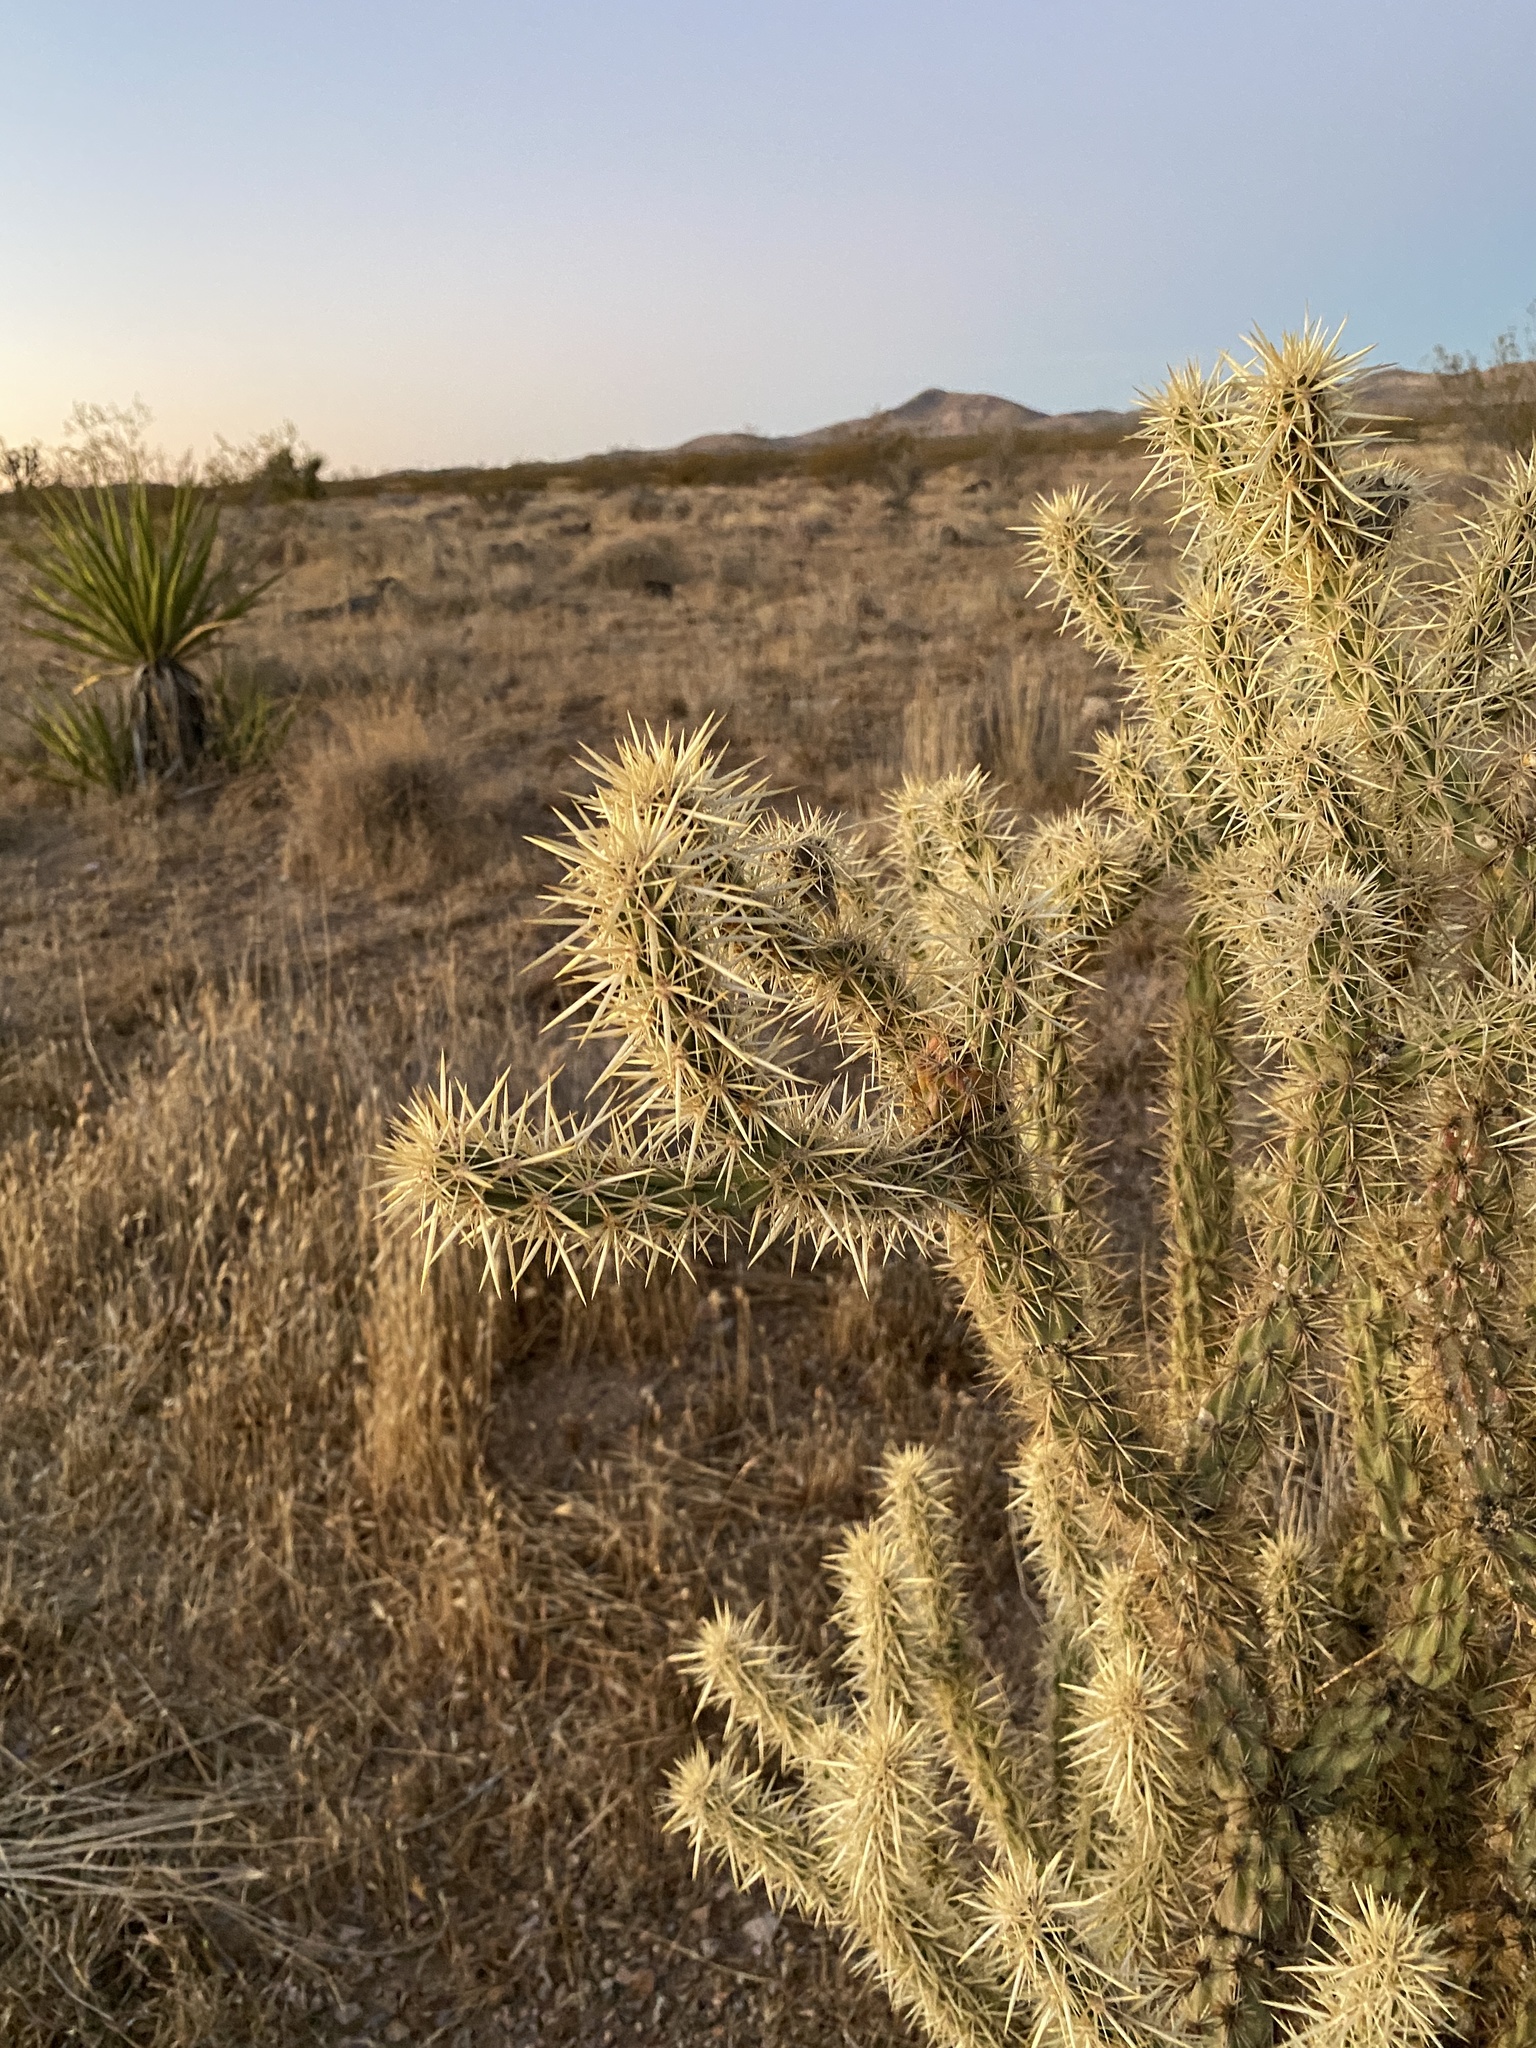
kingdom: Plantae
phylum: Tracheophyta
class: Magnoliopsida
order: Caryophyllales
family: Cactaceae
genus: Cylindropuntia
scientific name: Cylindropuntia acanthocarpa
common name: Buckhorn cholla
